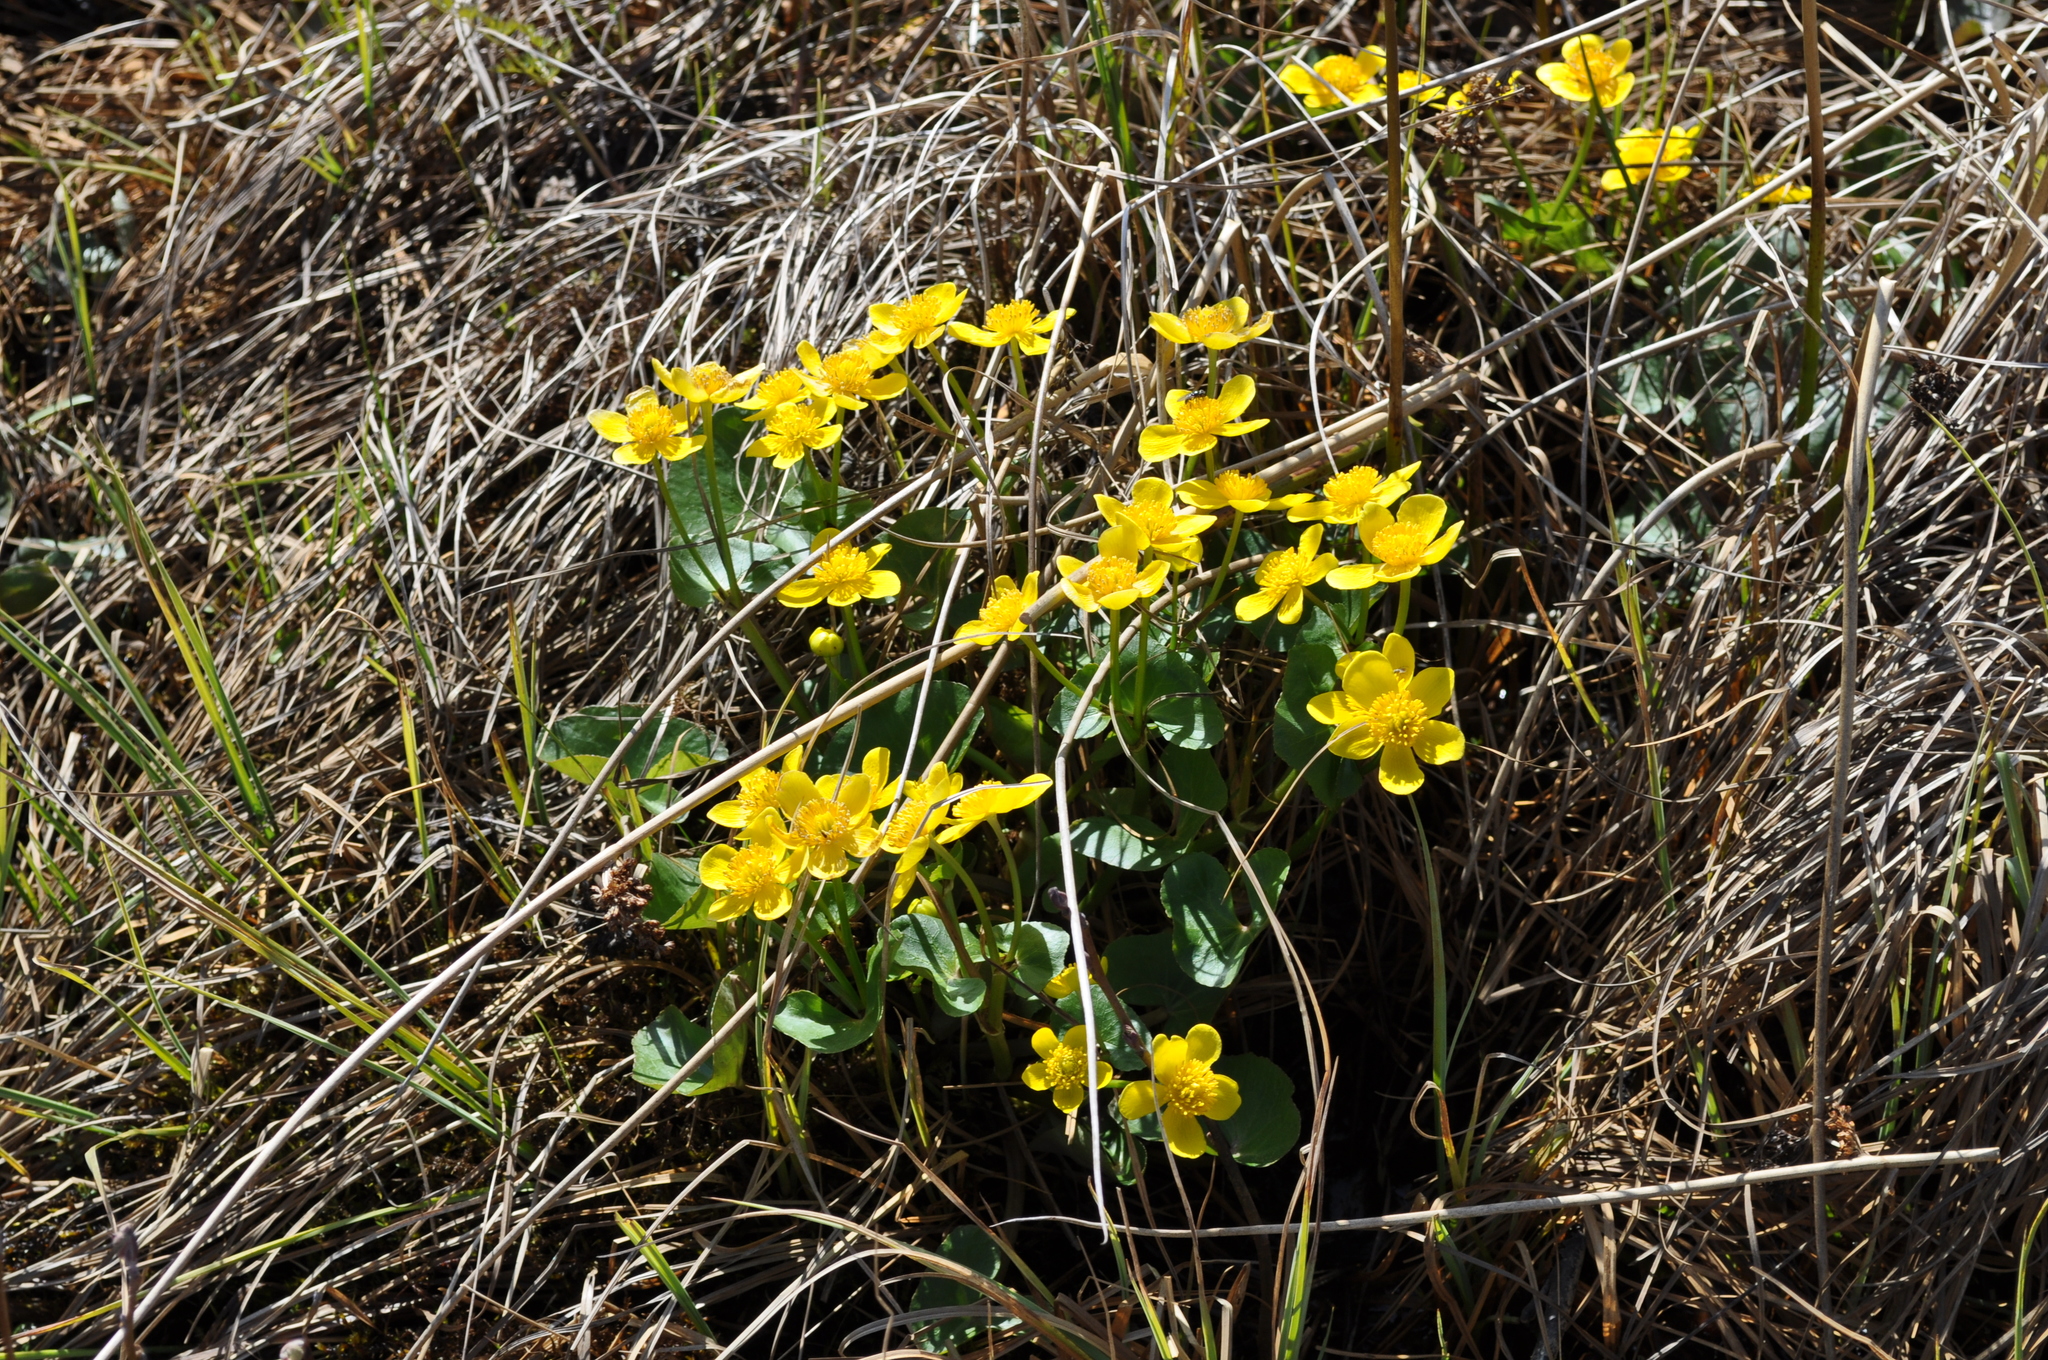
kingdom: Plantae
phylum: Tracheophyta
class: Magnoliopsida
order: Ranunculales
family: Ranunculaceae
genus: Caltha
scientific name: Caltha palustris
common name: Marsh marigold
